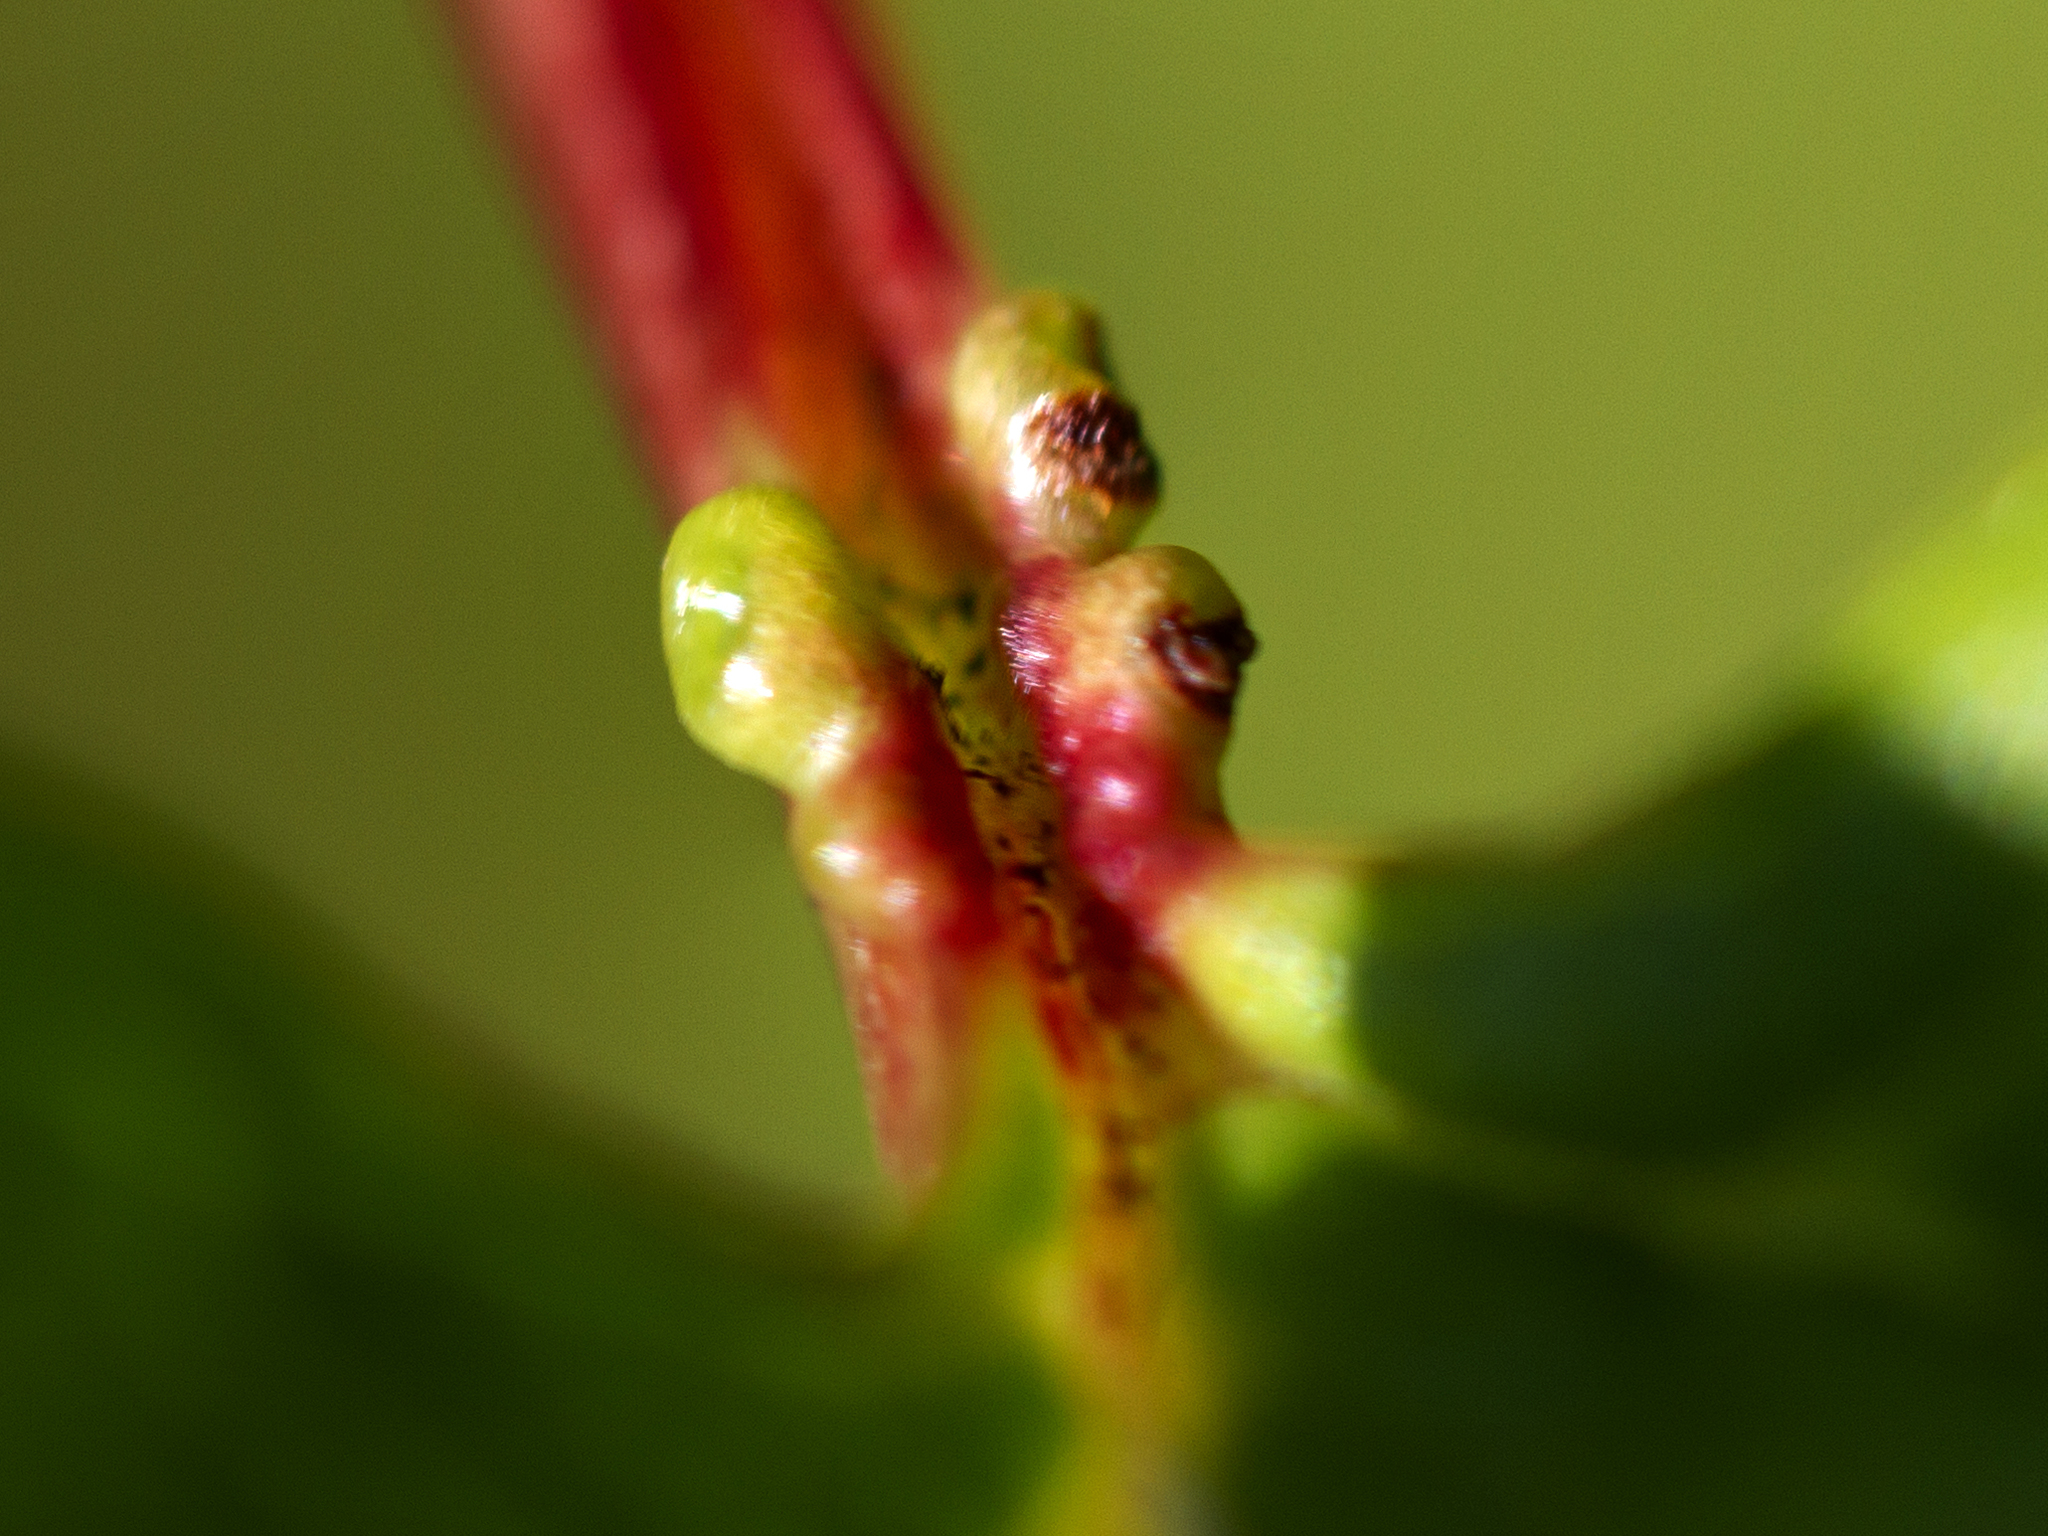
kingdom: Plantae
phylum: Tracheophyta
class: Magnoliopsida
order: Dipsacales
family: Viburnaceae
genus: Viburnum
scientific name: Viburnum opulus
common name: Guelder-rose
